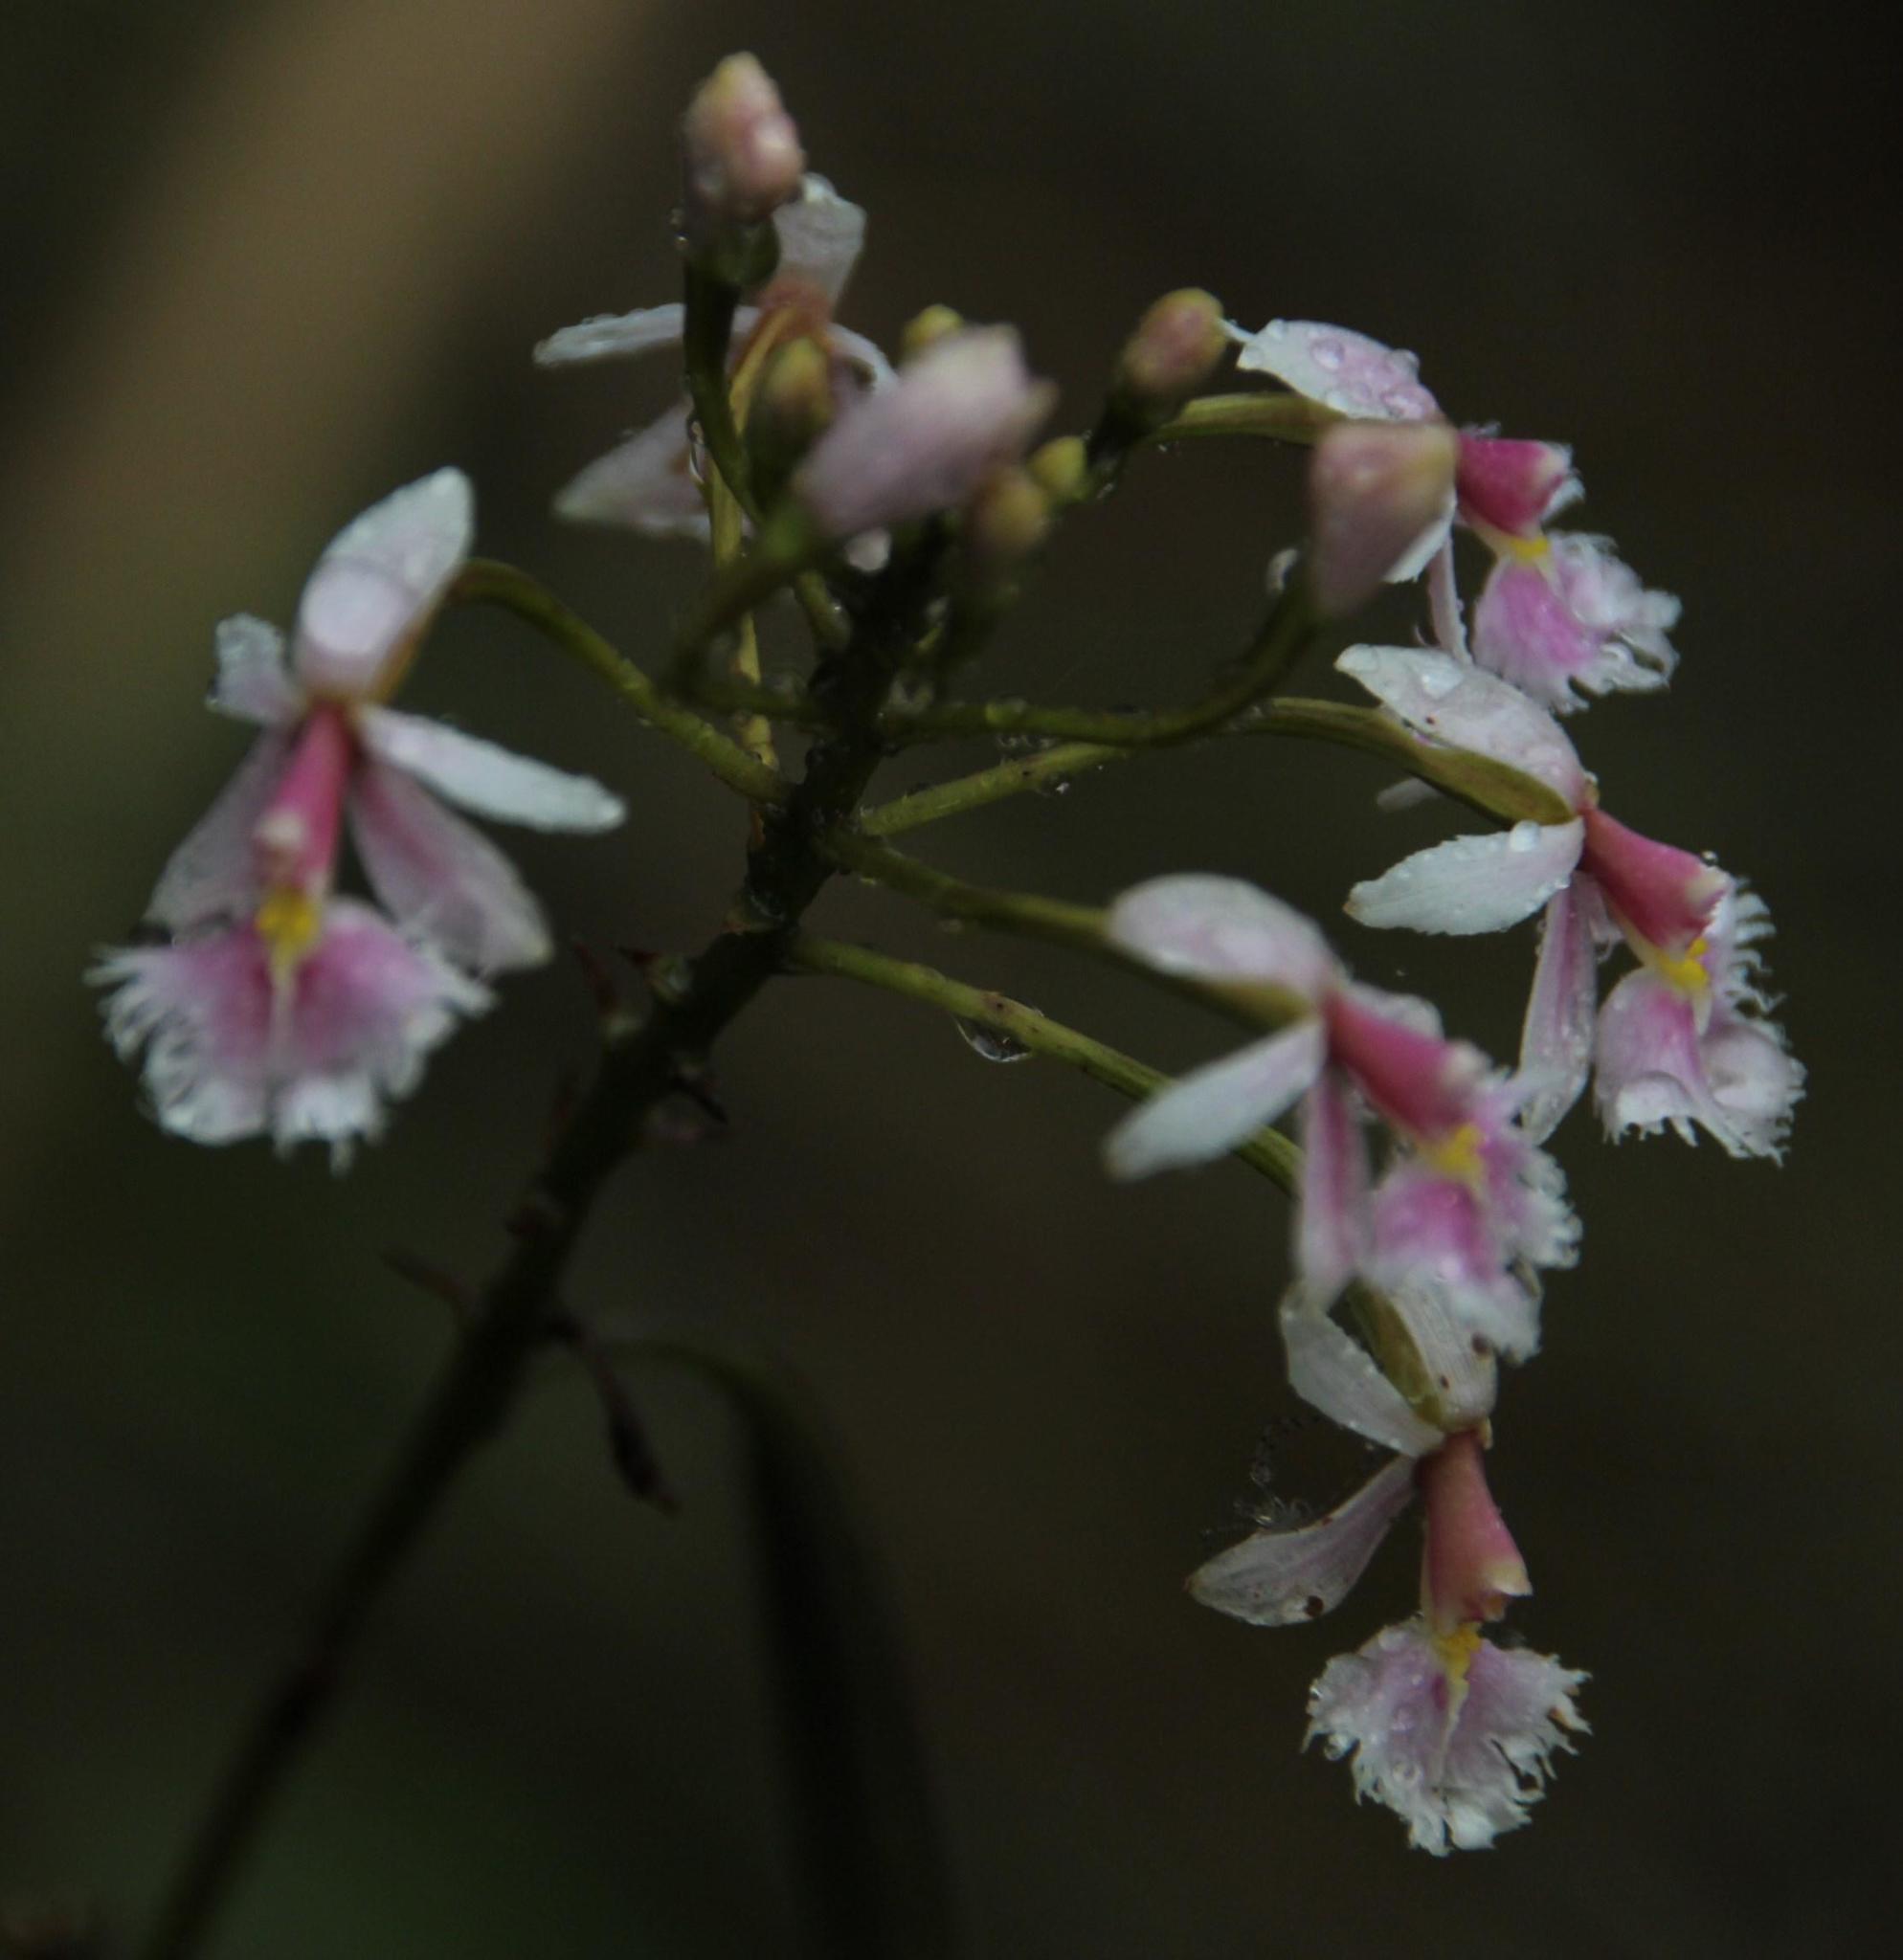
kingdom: Plantae
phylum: Tracheophyta
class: Liliopsida
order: Asparagales
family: Orchidaceae
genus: Epidendrum
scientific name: Epidendrum calanthum
